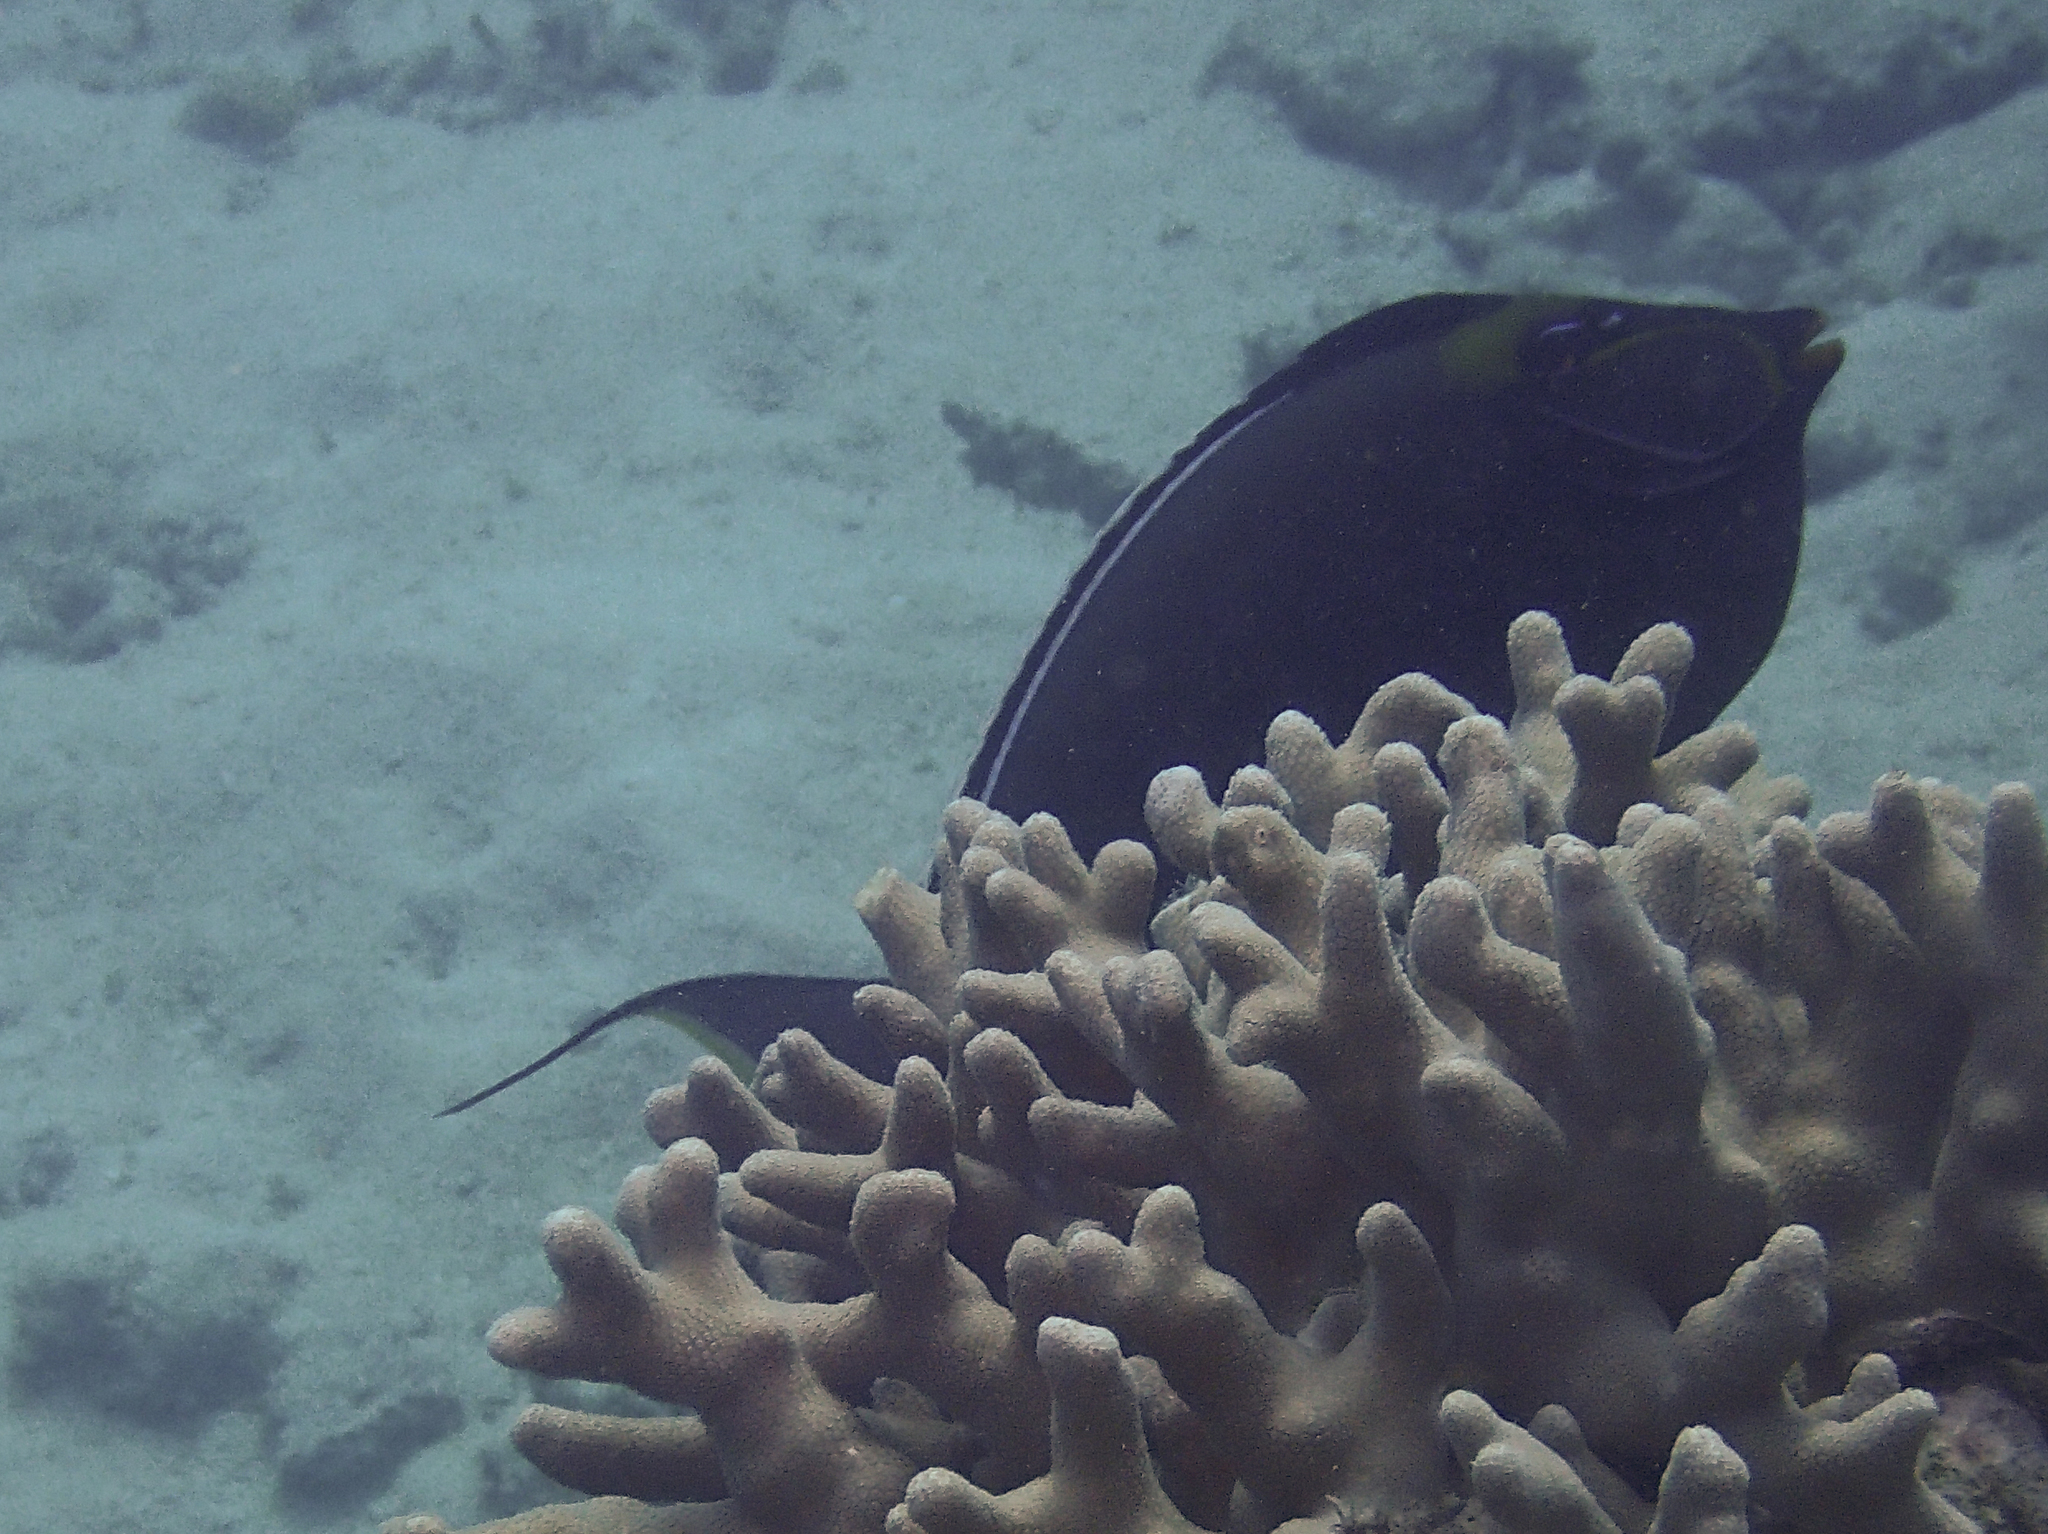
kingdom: Animalia
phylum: Chordata
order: Perciformes
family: Acanthuridae
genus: Naso
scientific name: Naso lituratus
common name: Orangespine unicornfish
